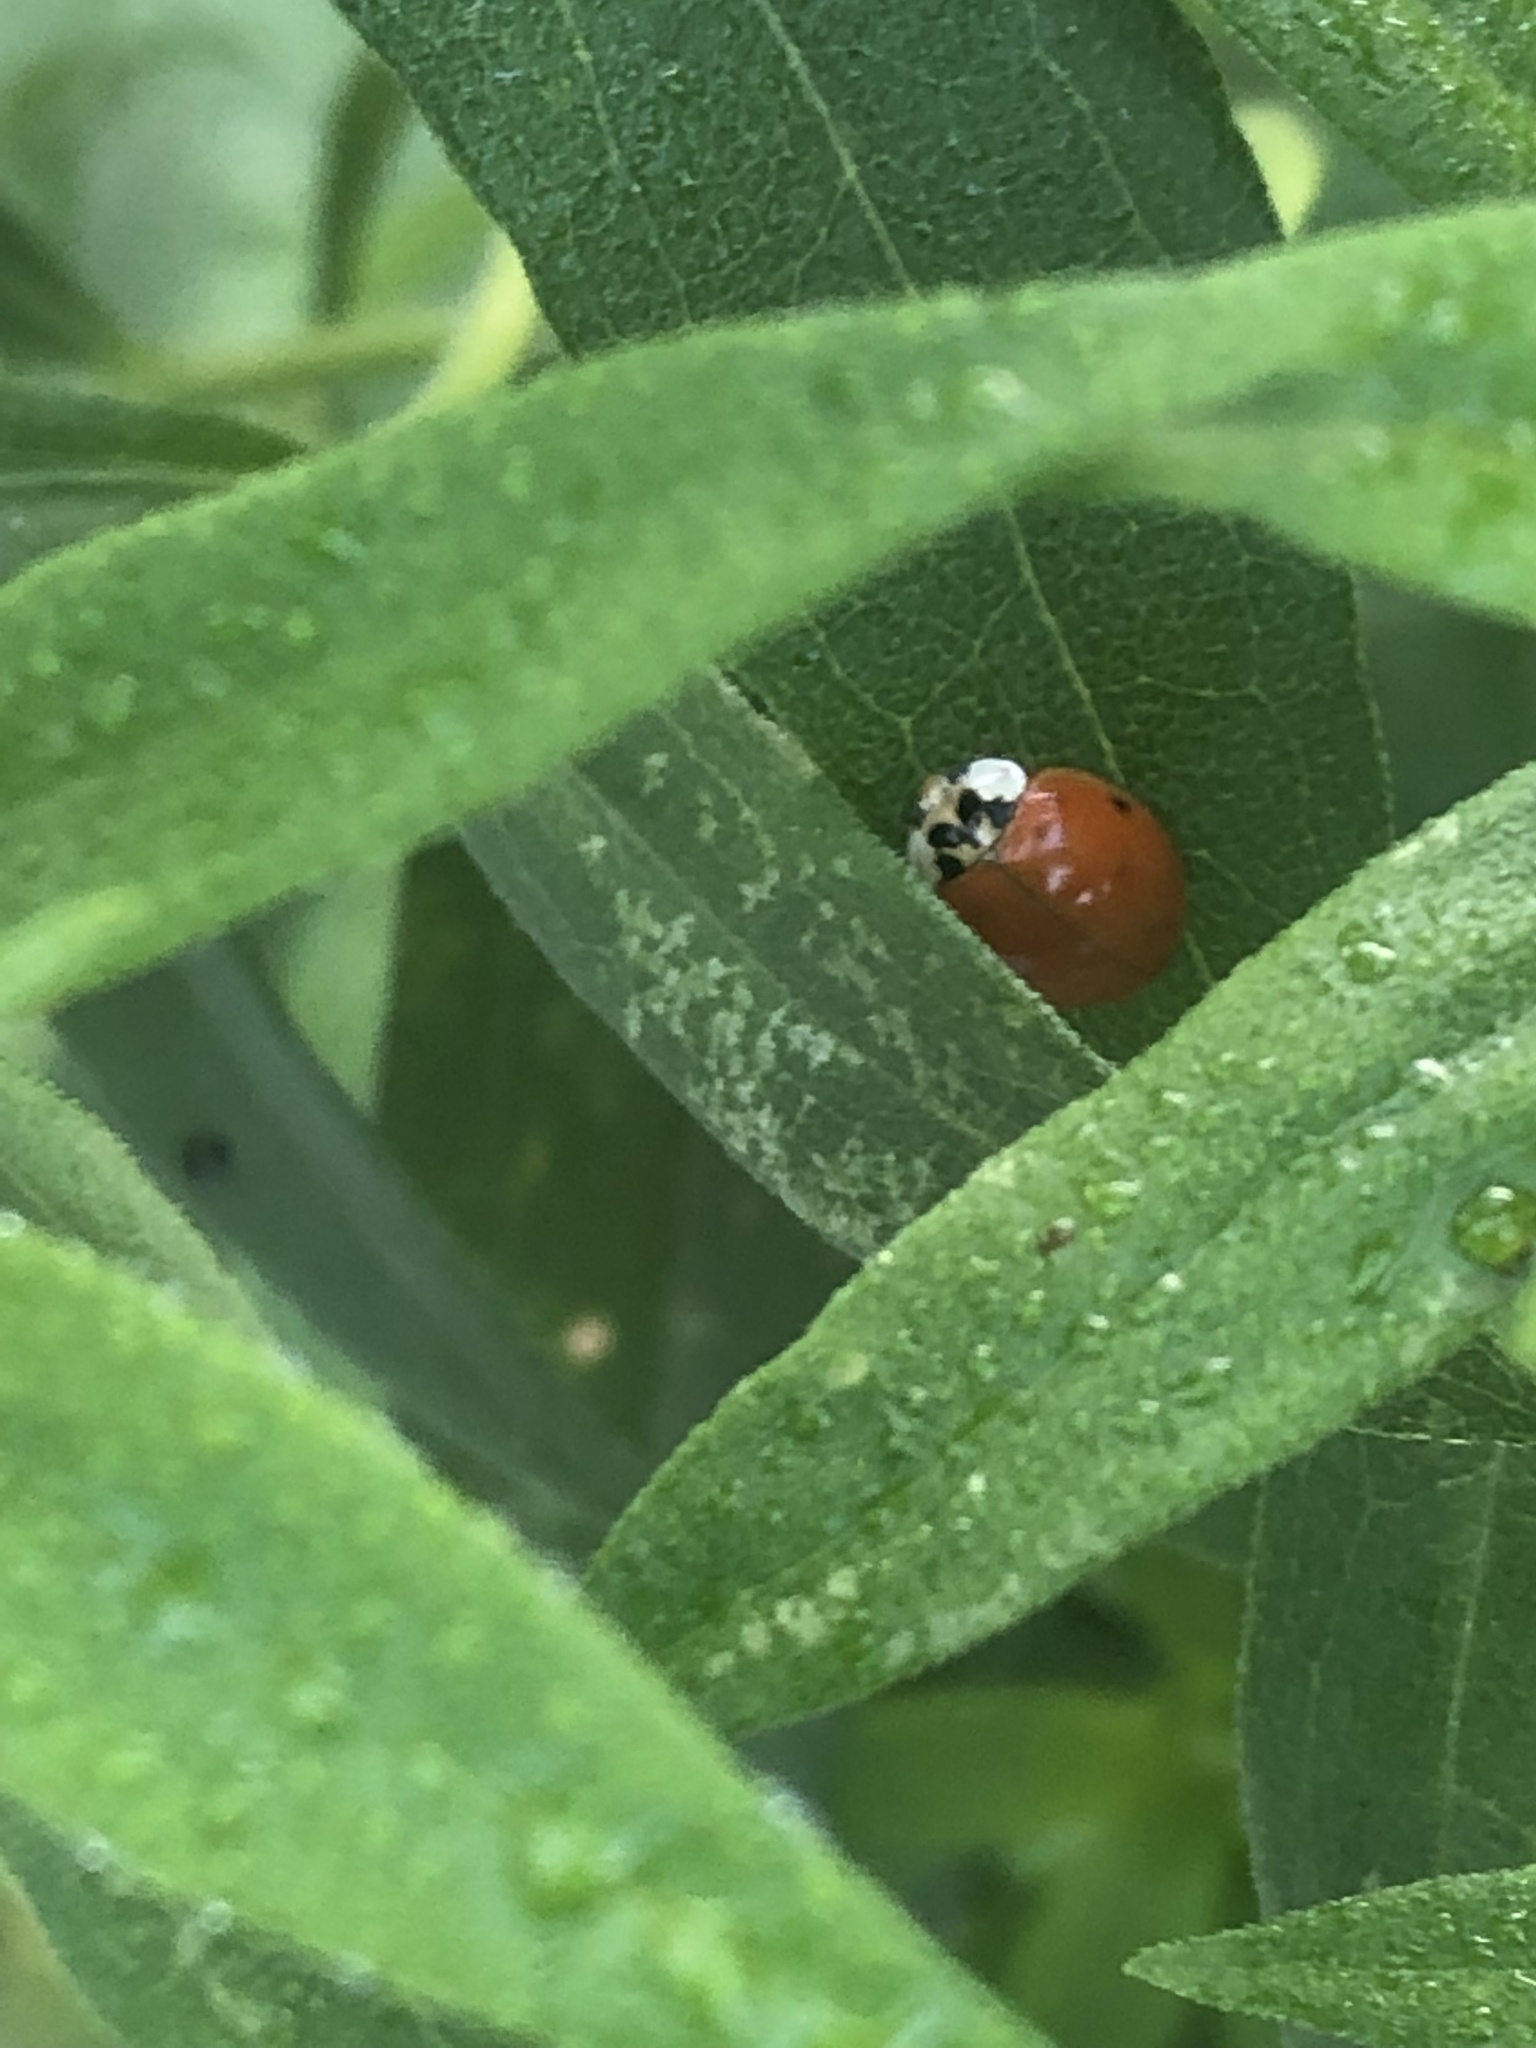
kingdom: Animalia
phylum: Arthropoda
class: Insecta
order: Coleoptera
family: Coccinellidae
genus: Harmonia
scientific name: Harmonia axyridis
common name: Harlequin ladybird
